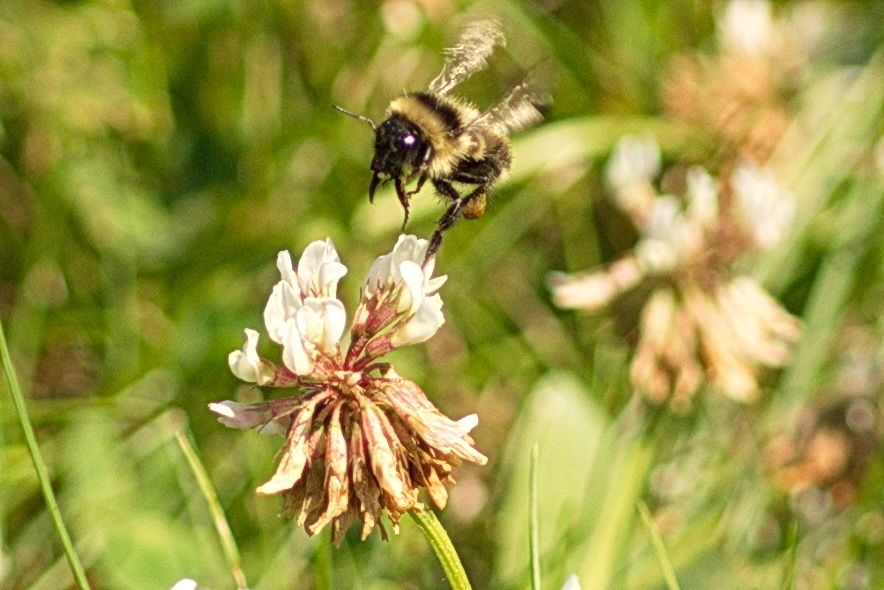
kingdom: Animalia
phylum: Arthropoda
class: Insecta
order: Hymenoptera
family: Apidae
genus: Bombus
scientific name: Bombus rufocinctus
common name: Red-belted bumble bee
